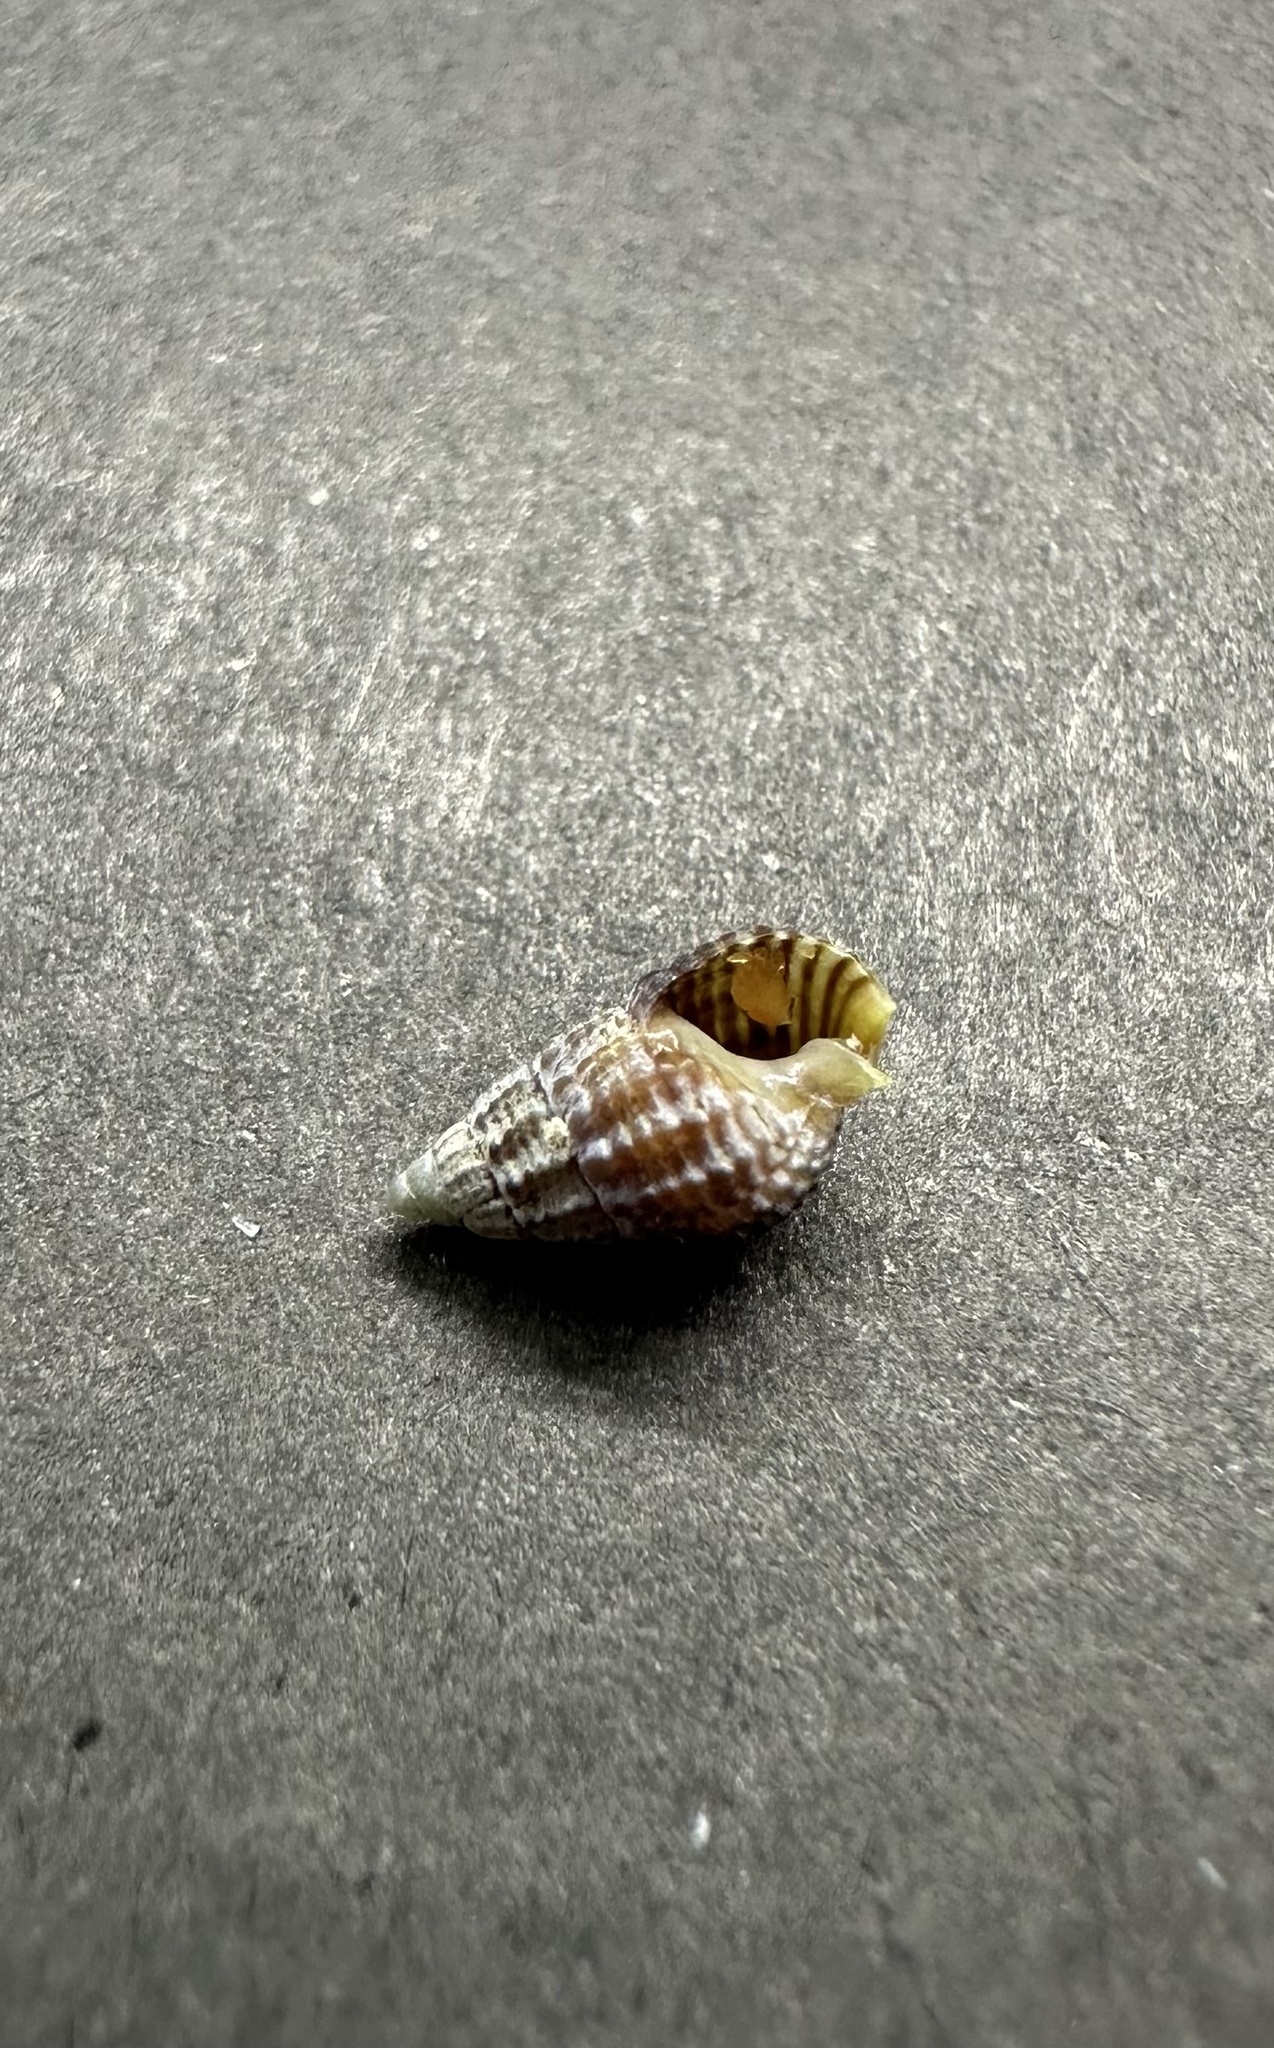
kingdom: Animalia
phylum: Mollusca
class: Gastropoda
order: Neogastropoda
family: Nassariidae
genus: Ilyanassa
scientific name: Ilyanassa trivittata
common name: Three-line mudsnail
